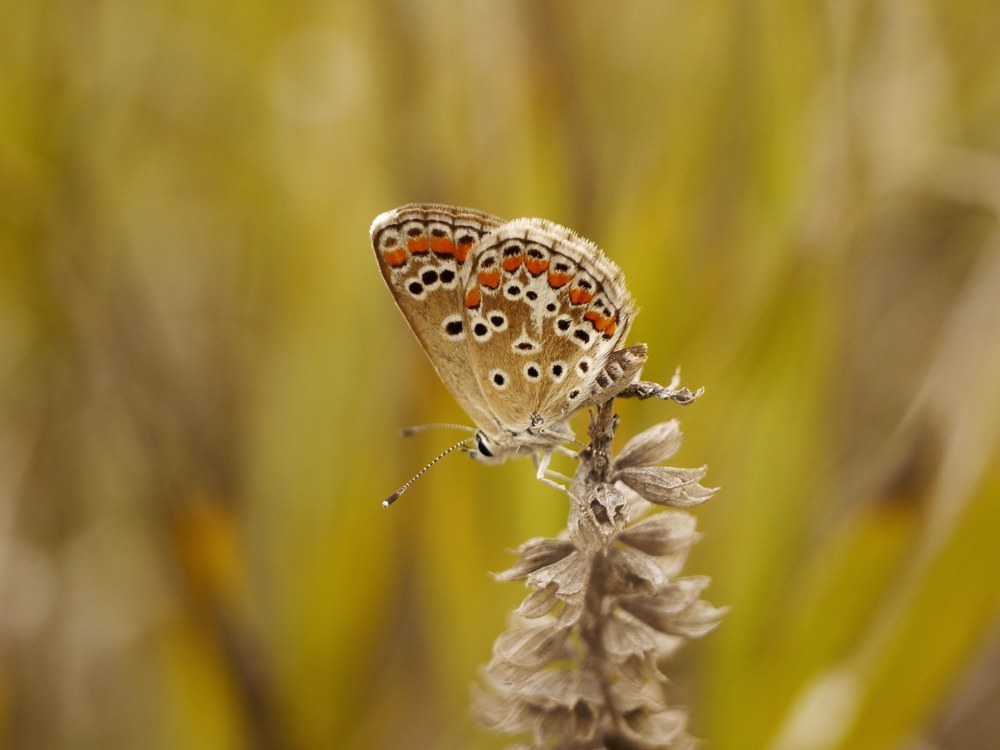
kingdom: Animalia
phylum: Arthropoda
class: Insecta
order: Lepidoptera
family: Lycaenidae
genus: Aricia
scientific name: Aricia agestis
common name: Brown argus
